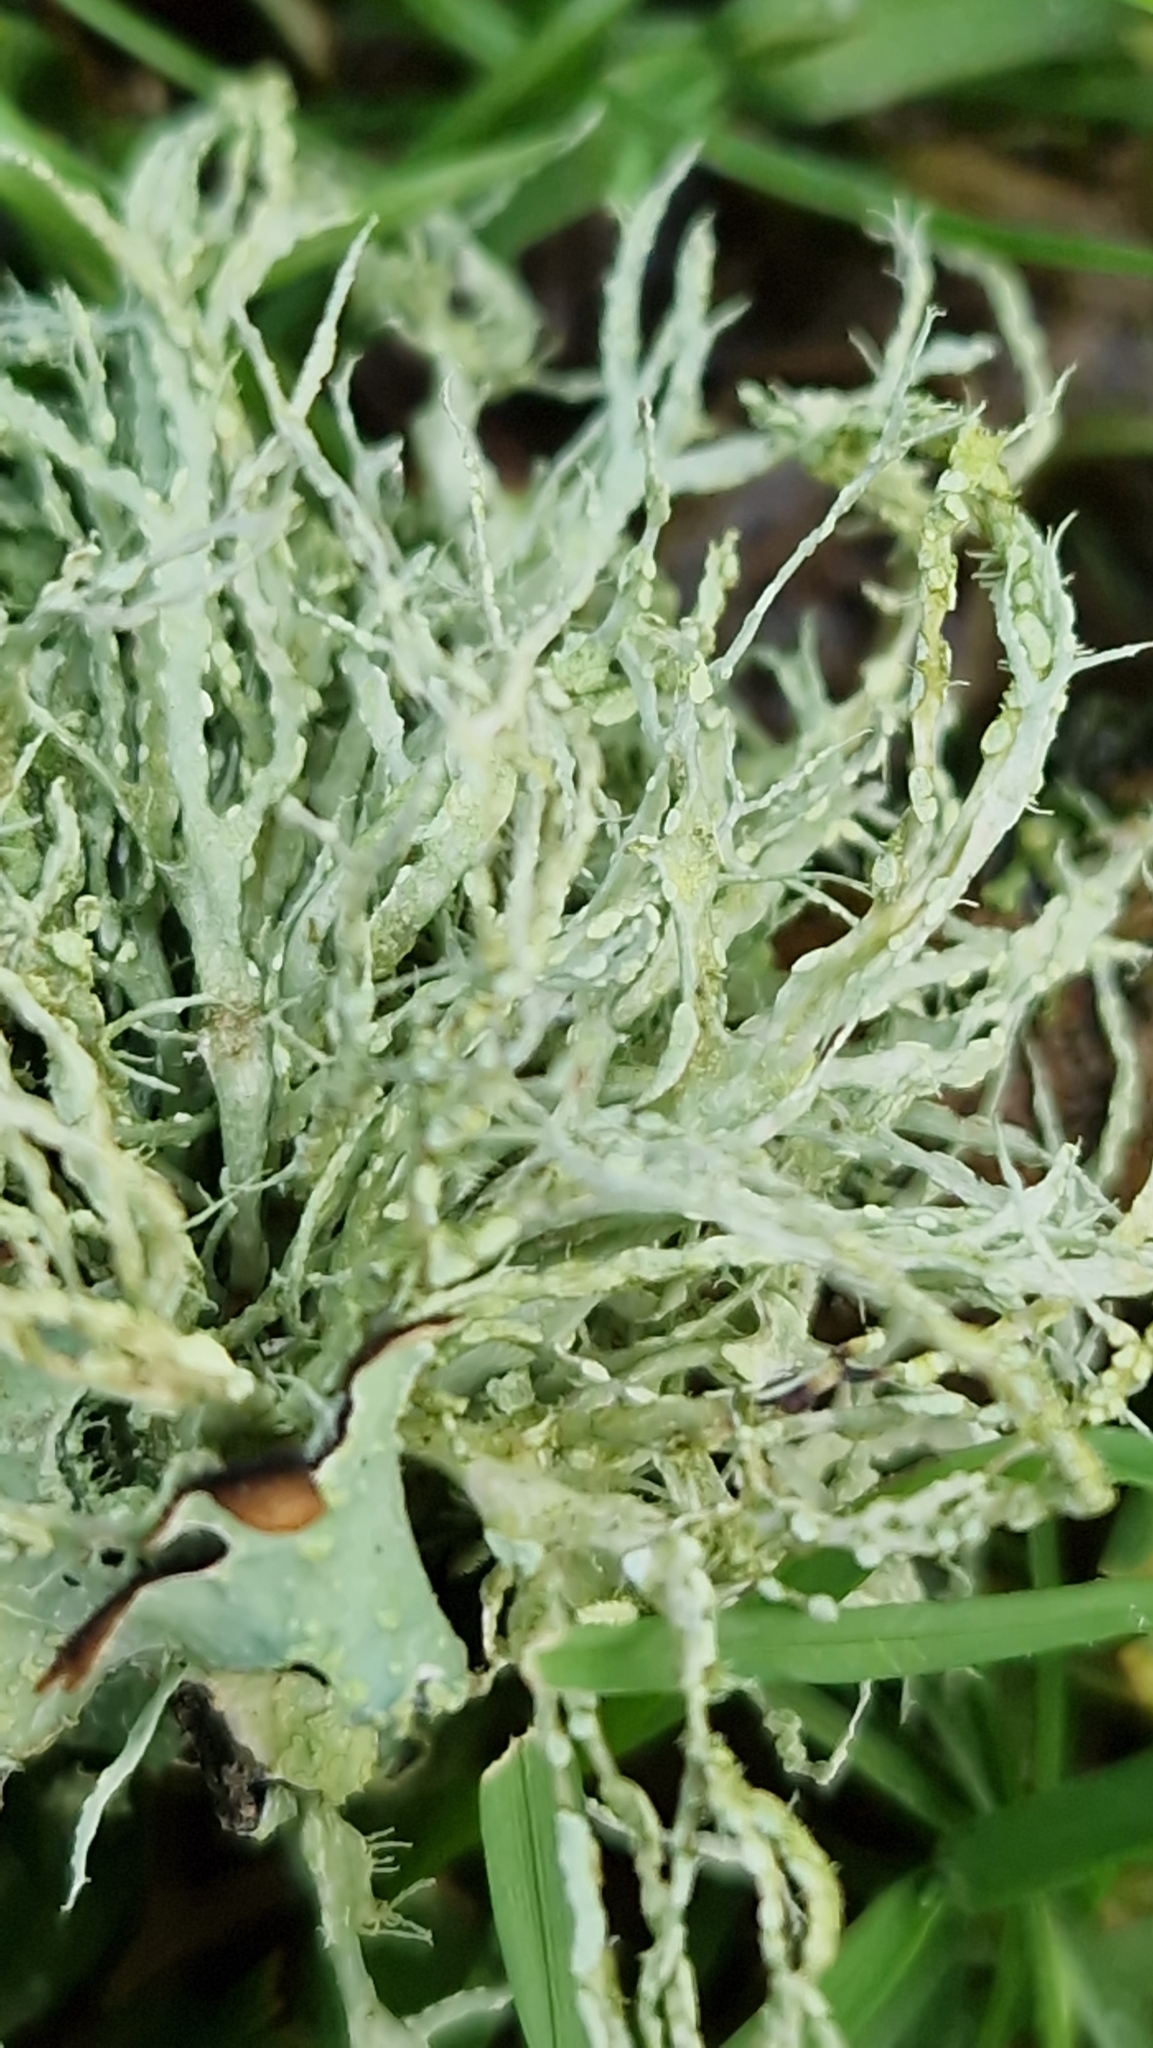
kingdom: Fungi
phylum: Ascomycota
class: Lecanoromycetes
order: Lecanorales
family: Ramalinaceae
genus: Ramalina
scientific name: Ramalina farinacea
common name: Farinose cartilage lichen
